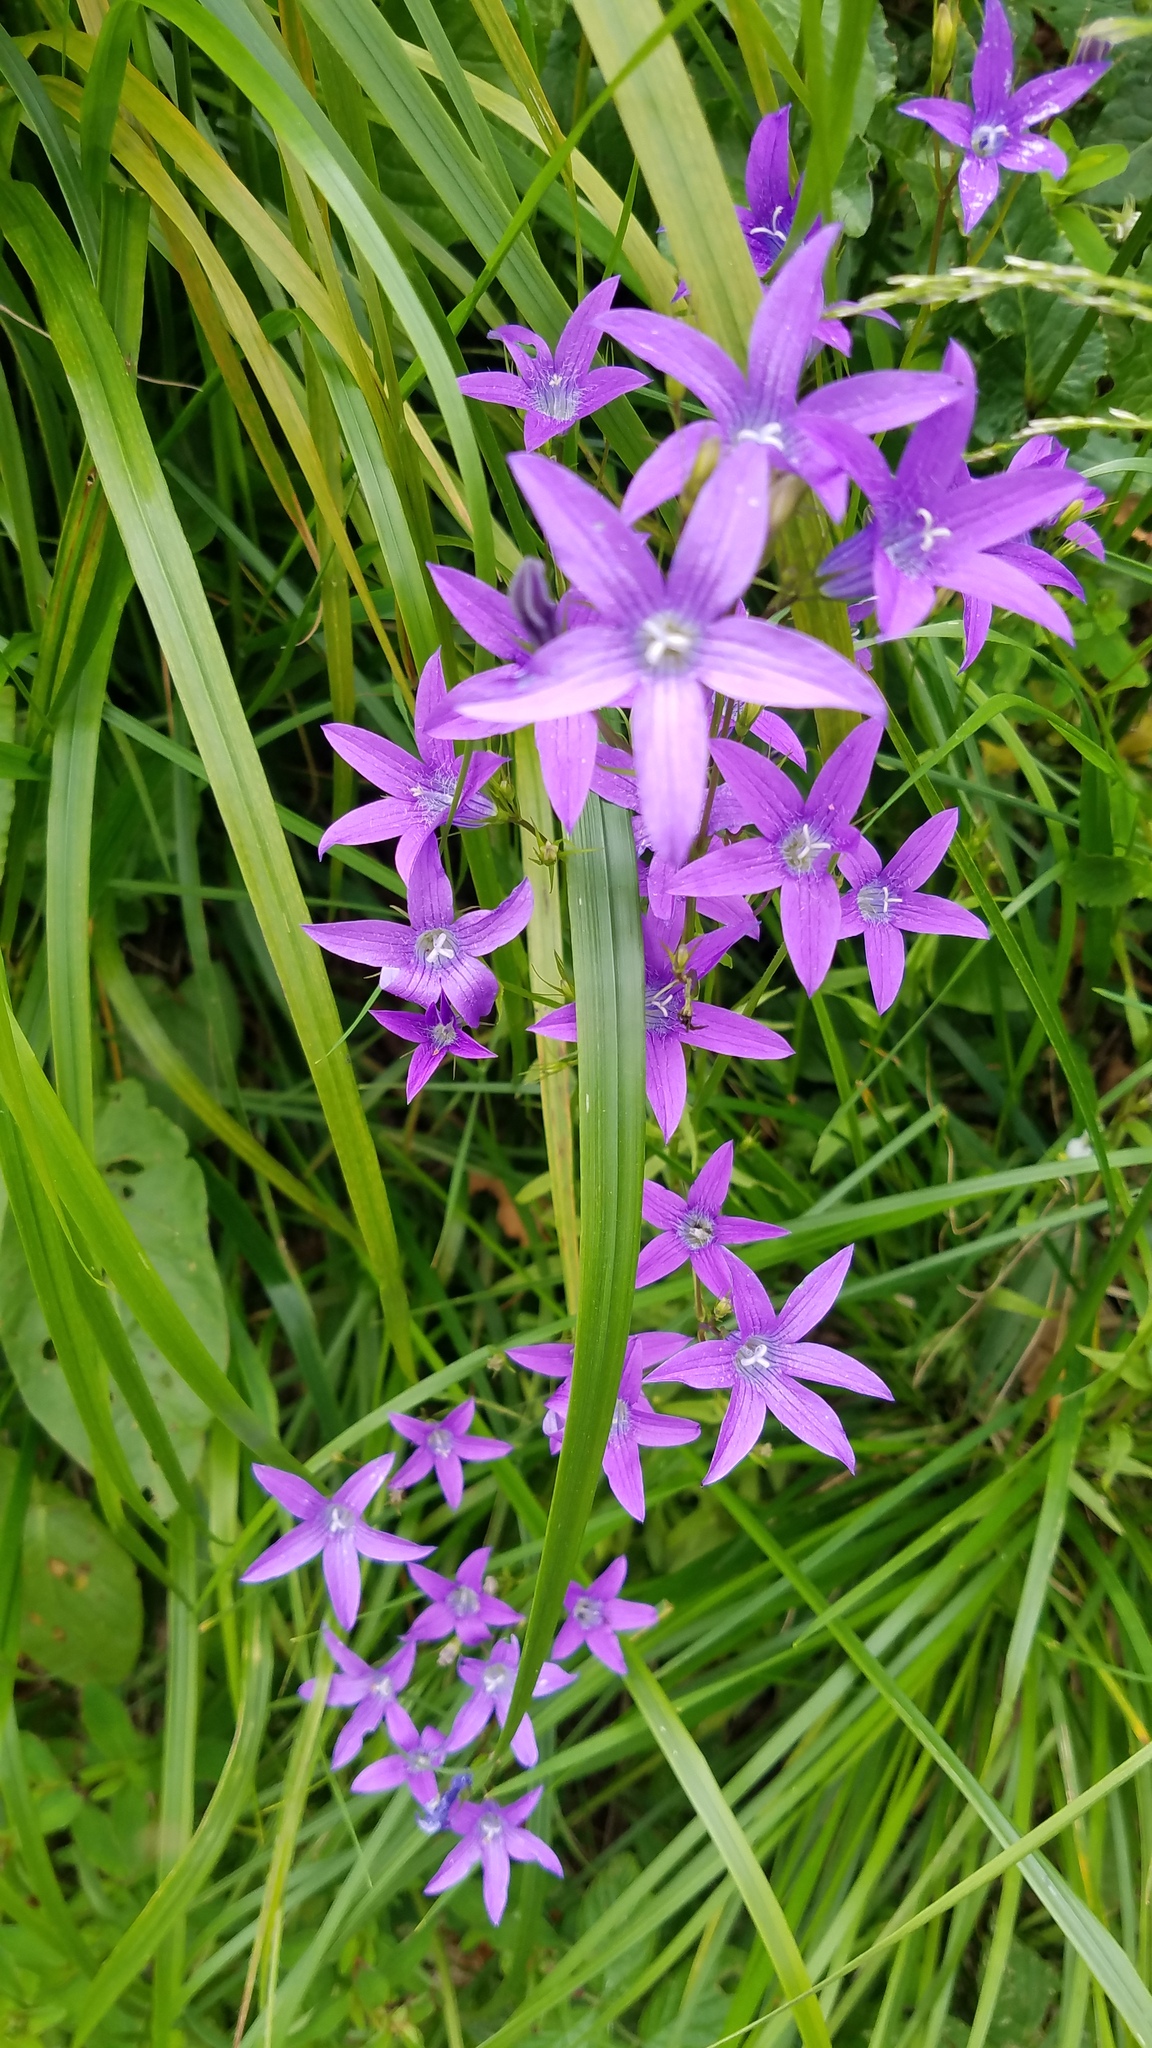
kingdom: Plantae
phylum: Tracheophyta
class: Magnoliopsida
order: Asterales
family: Campanulaceae
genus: Campanula
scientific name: Campanula patula
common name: Spreading bellflower
